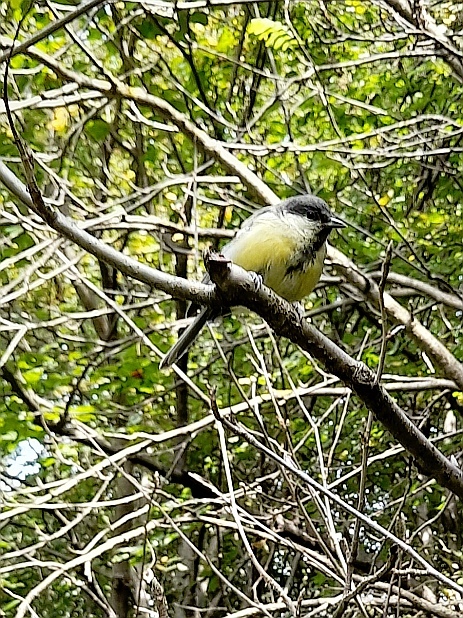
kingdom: Animalia
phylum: Chordata
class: Aves
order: Passeriformes
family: Paridae
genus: Parus
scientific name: Parus major
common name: Great tit
